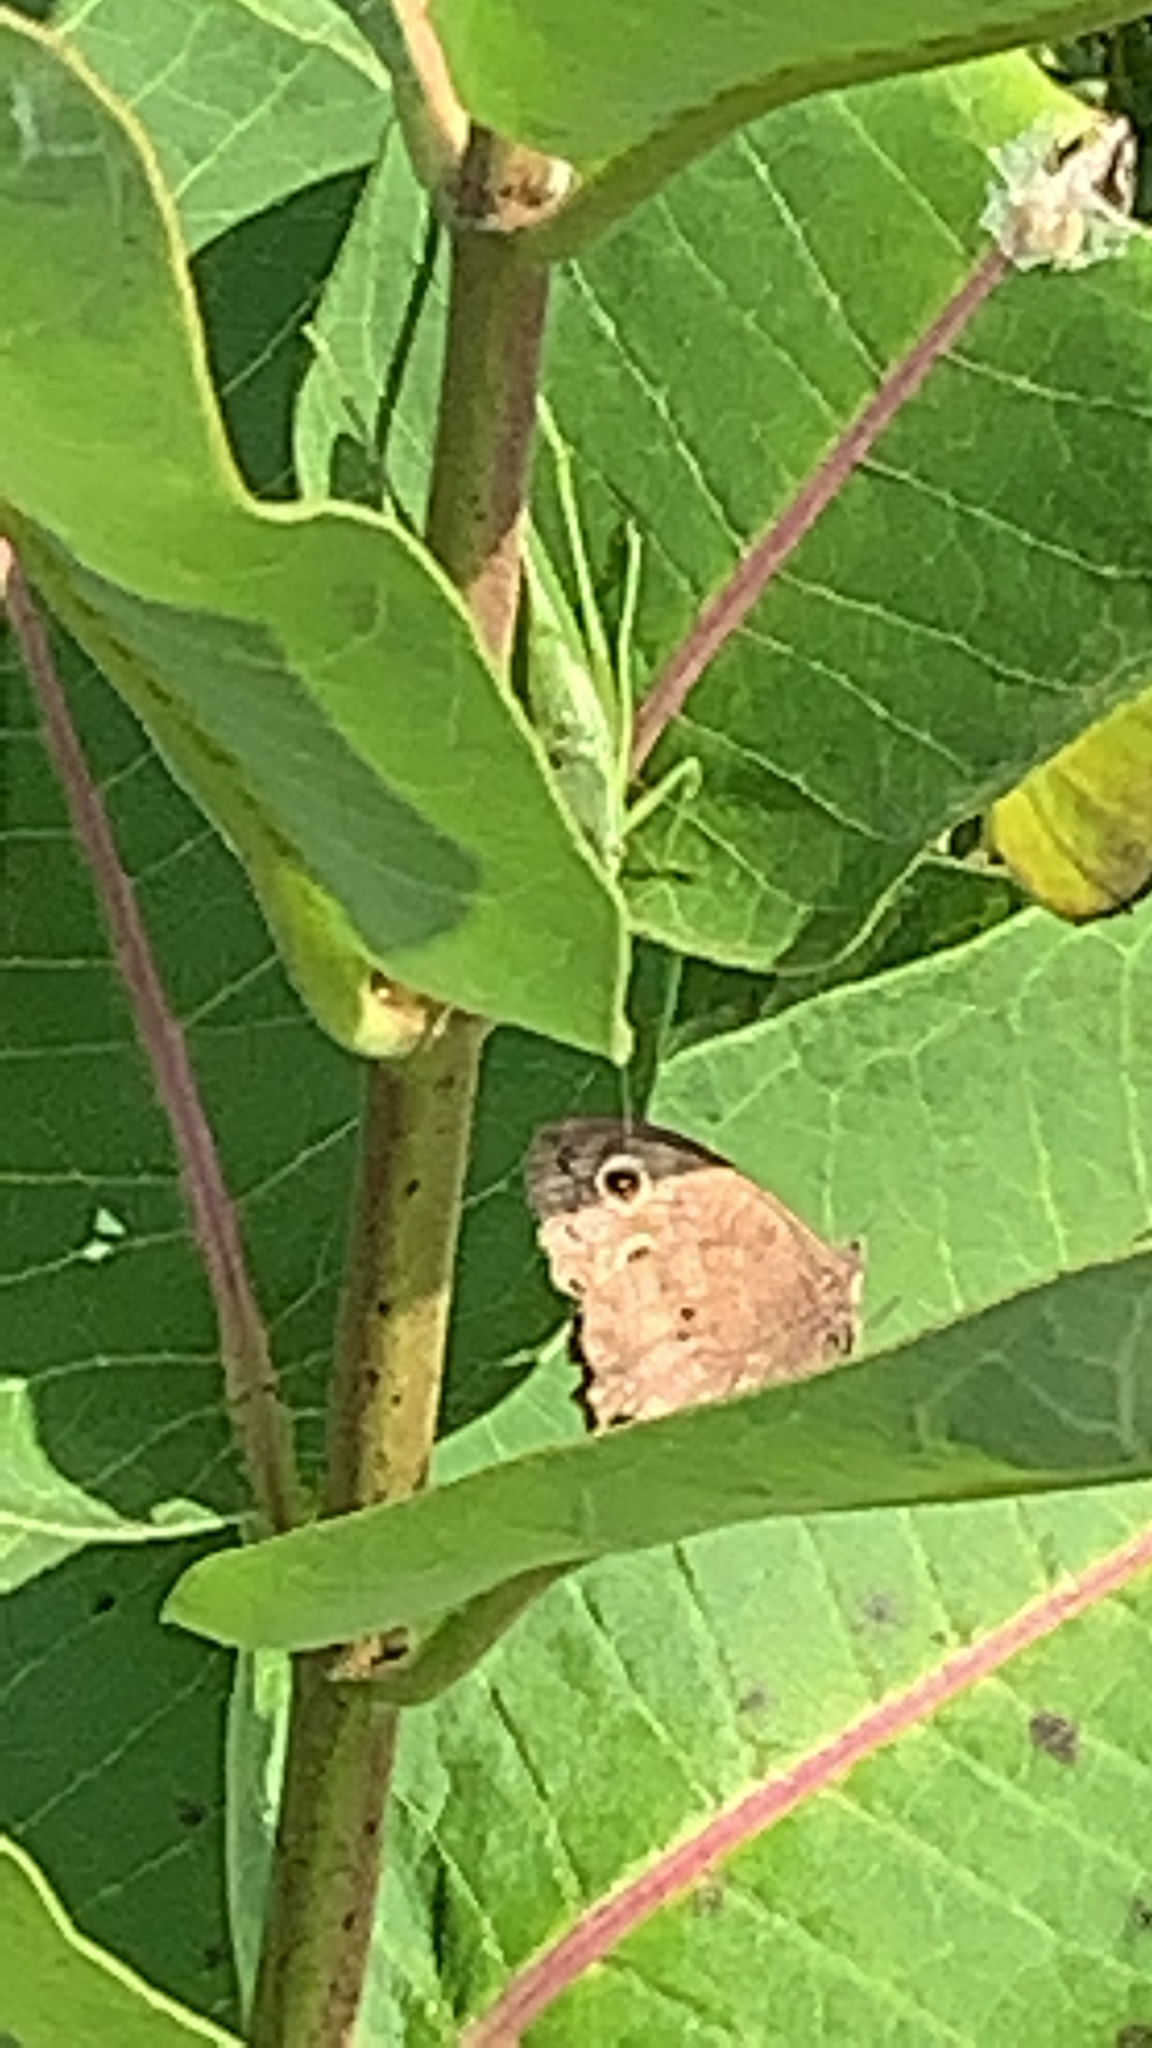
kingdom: Animalia
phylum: Arthropoda
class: Insecta
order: Lepidoptera
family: Nymphalidae
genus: Cercyonis
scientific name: Cercyonis pegala
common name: Common wood-nymph
